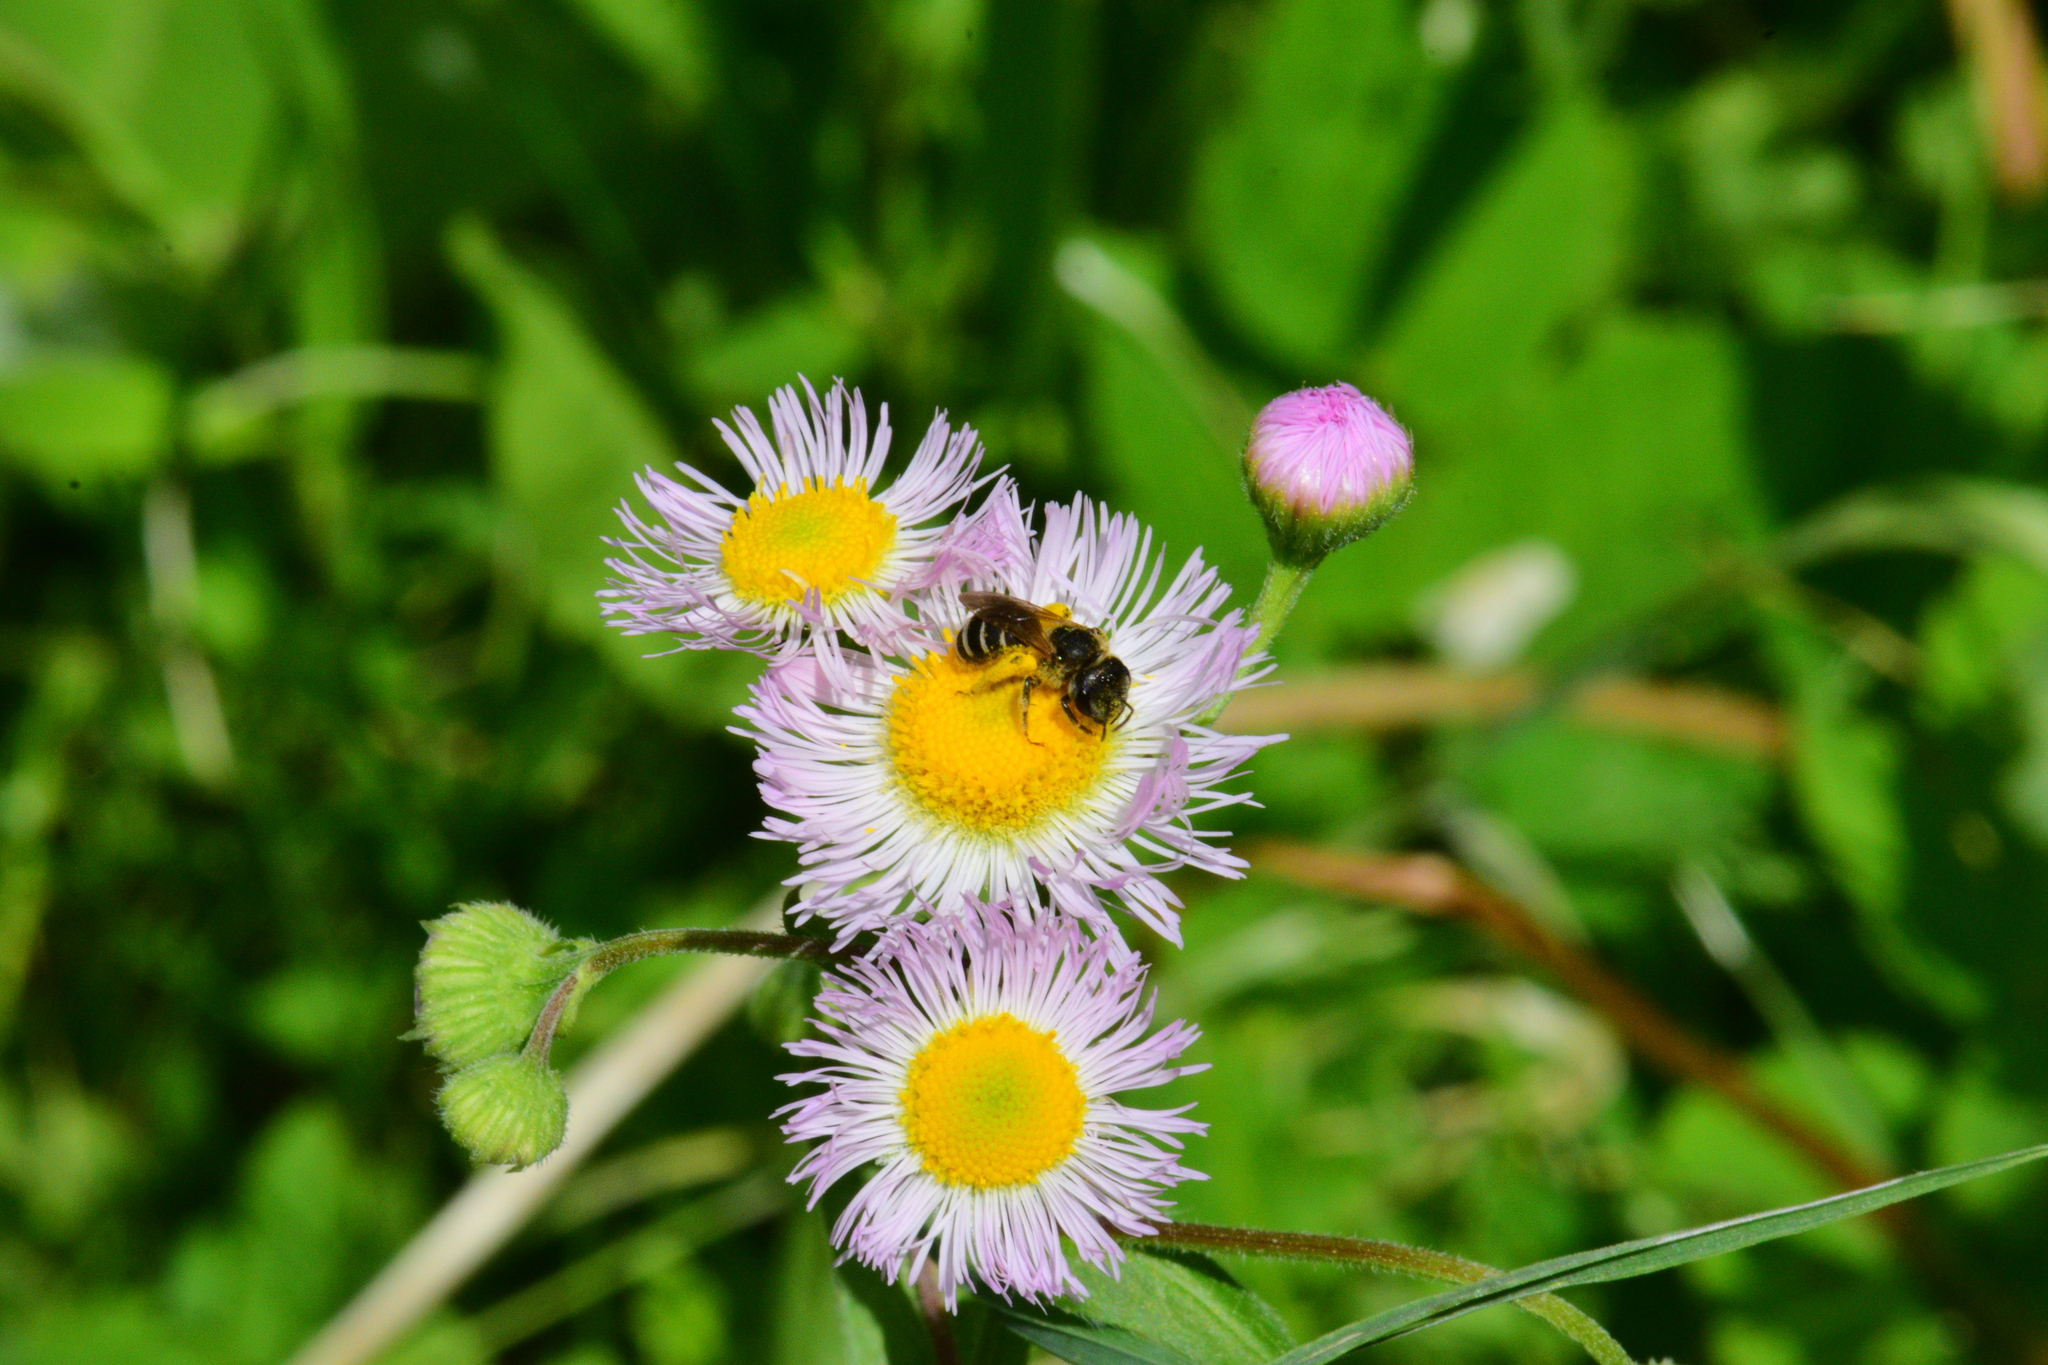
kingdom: Animalia
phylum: Arthropoda
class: Insecta
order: Hymenoptera
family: Halictidae
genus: Halictus
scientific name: Halictus ligatus
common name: Ligated furrow bee
